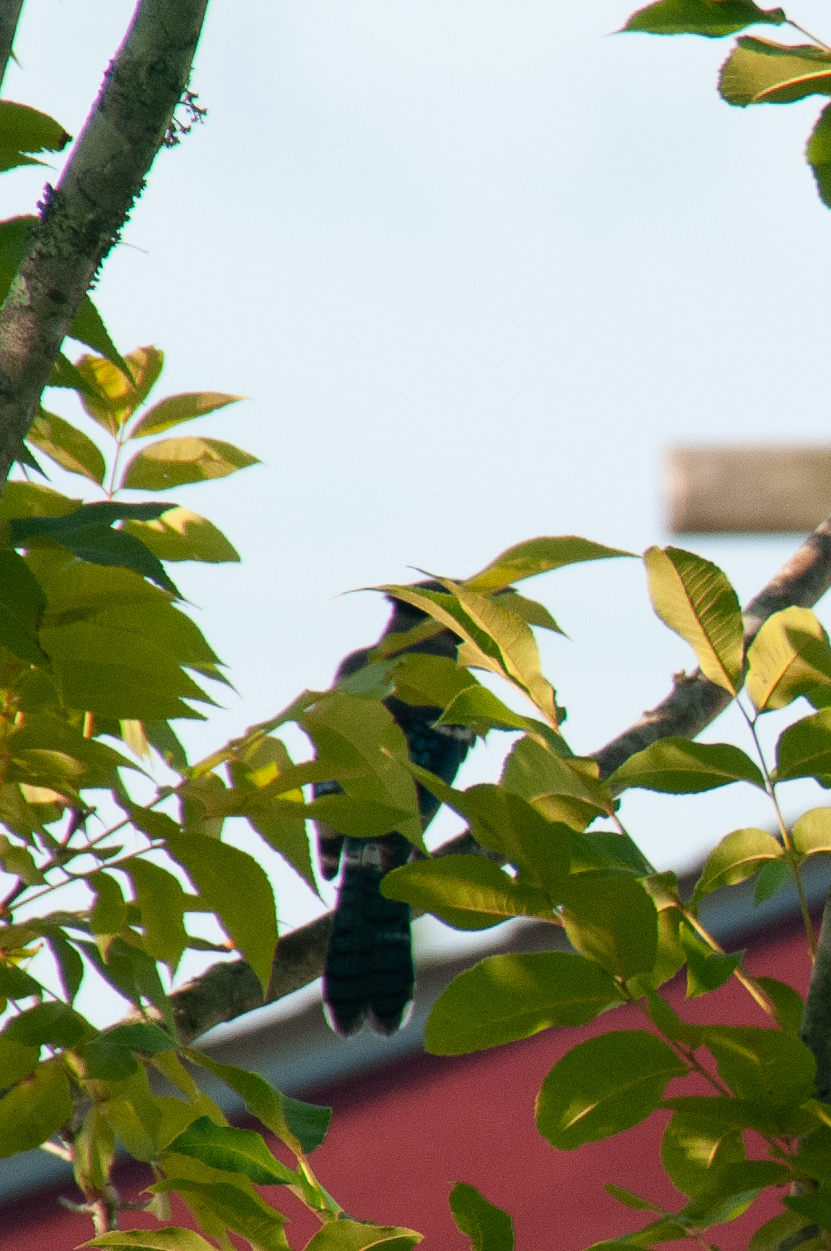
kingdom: Animalia
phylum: Chordata
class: Aves
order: Passeriformes
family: Corvidae
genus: Cyanocitta
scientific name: Cyanocitta cristata
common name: Blue jay
